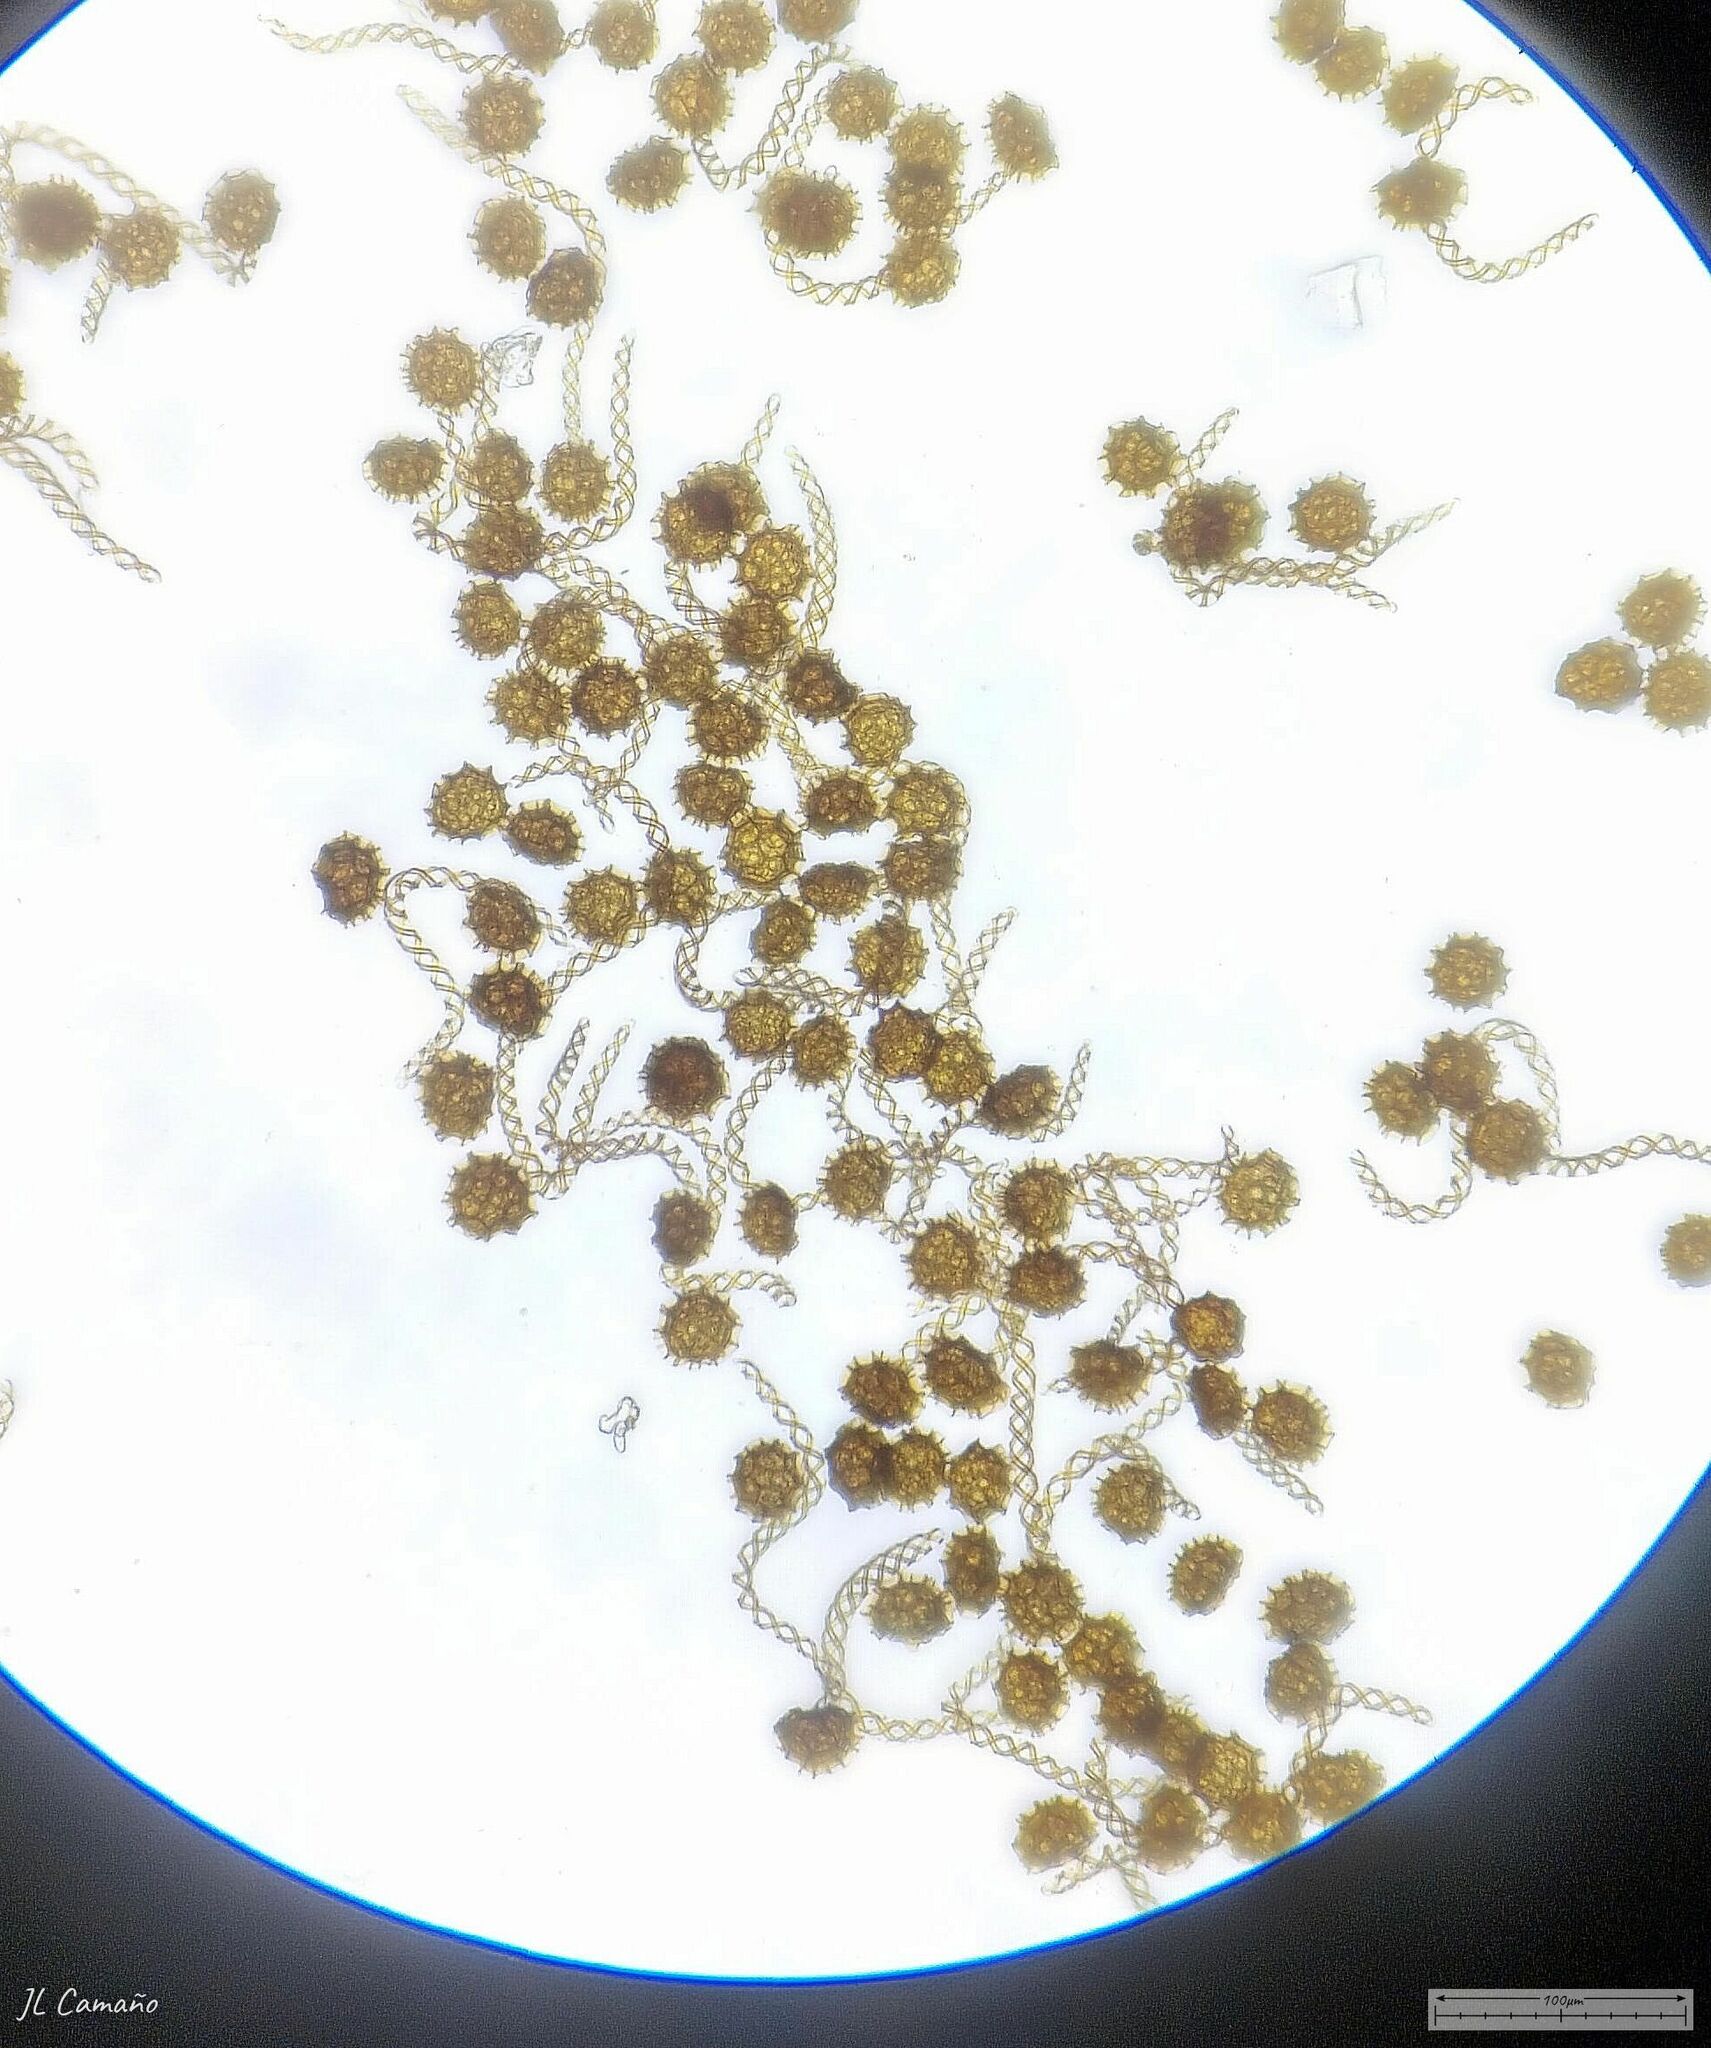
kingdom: Plantae
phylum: Marchantiophyta
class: Jungermanniopsida
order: Fossombroniales
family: Fossombroniaceae
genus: Fossombronia
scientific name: Fossombronia angulosa
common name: Greater frillwort
